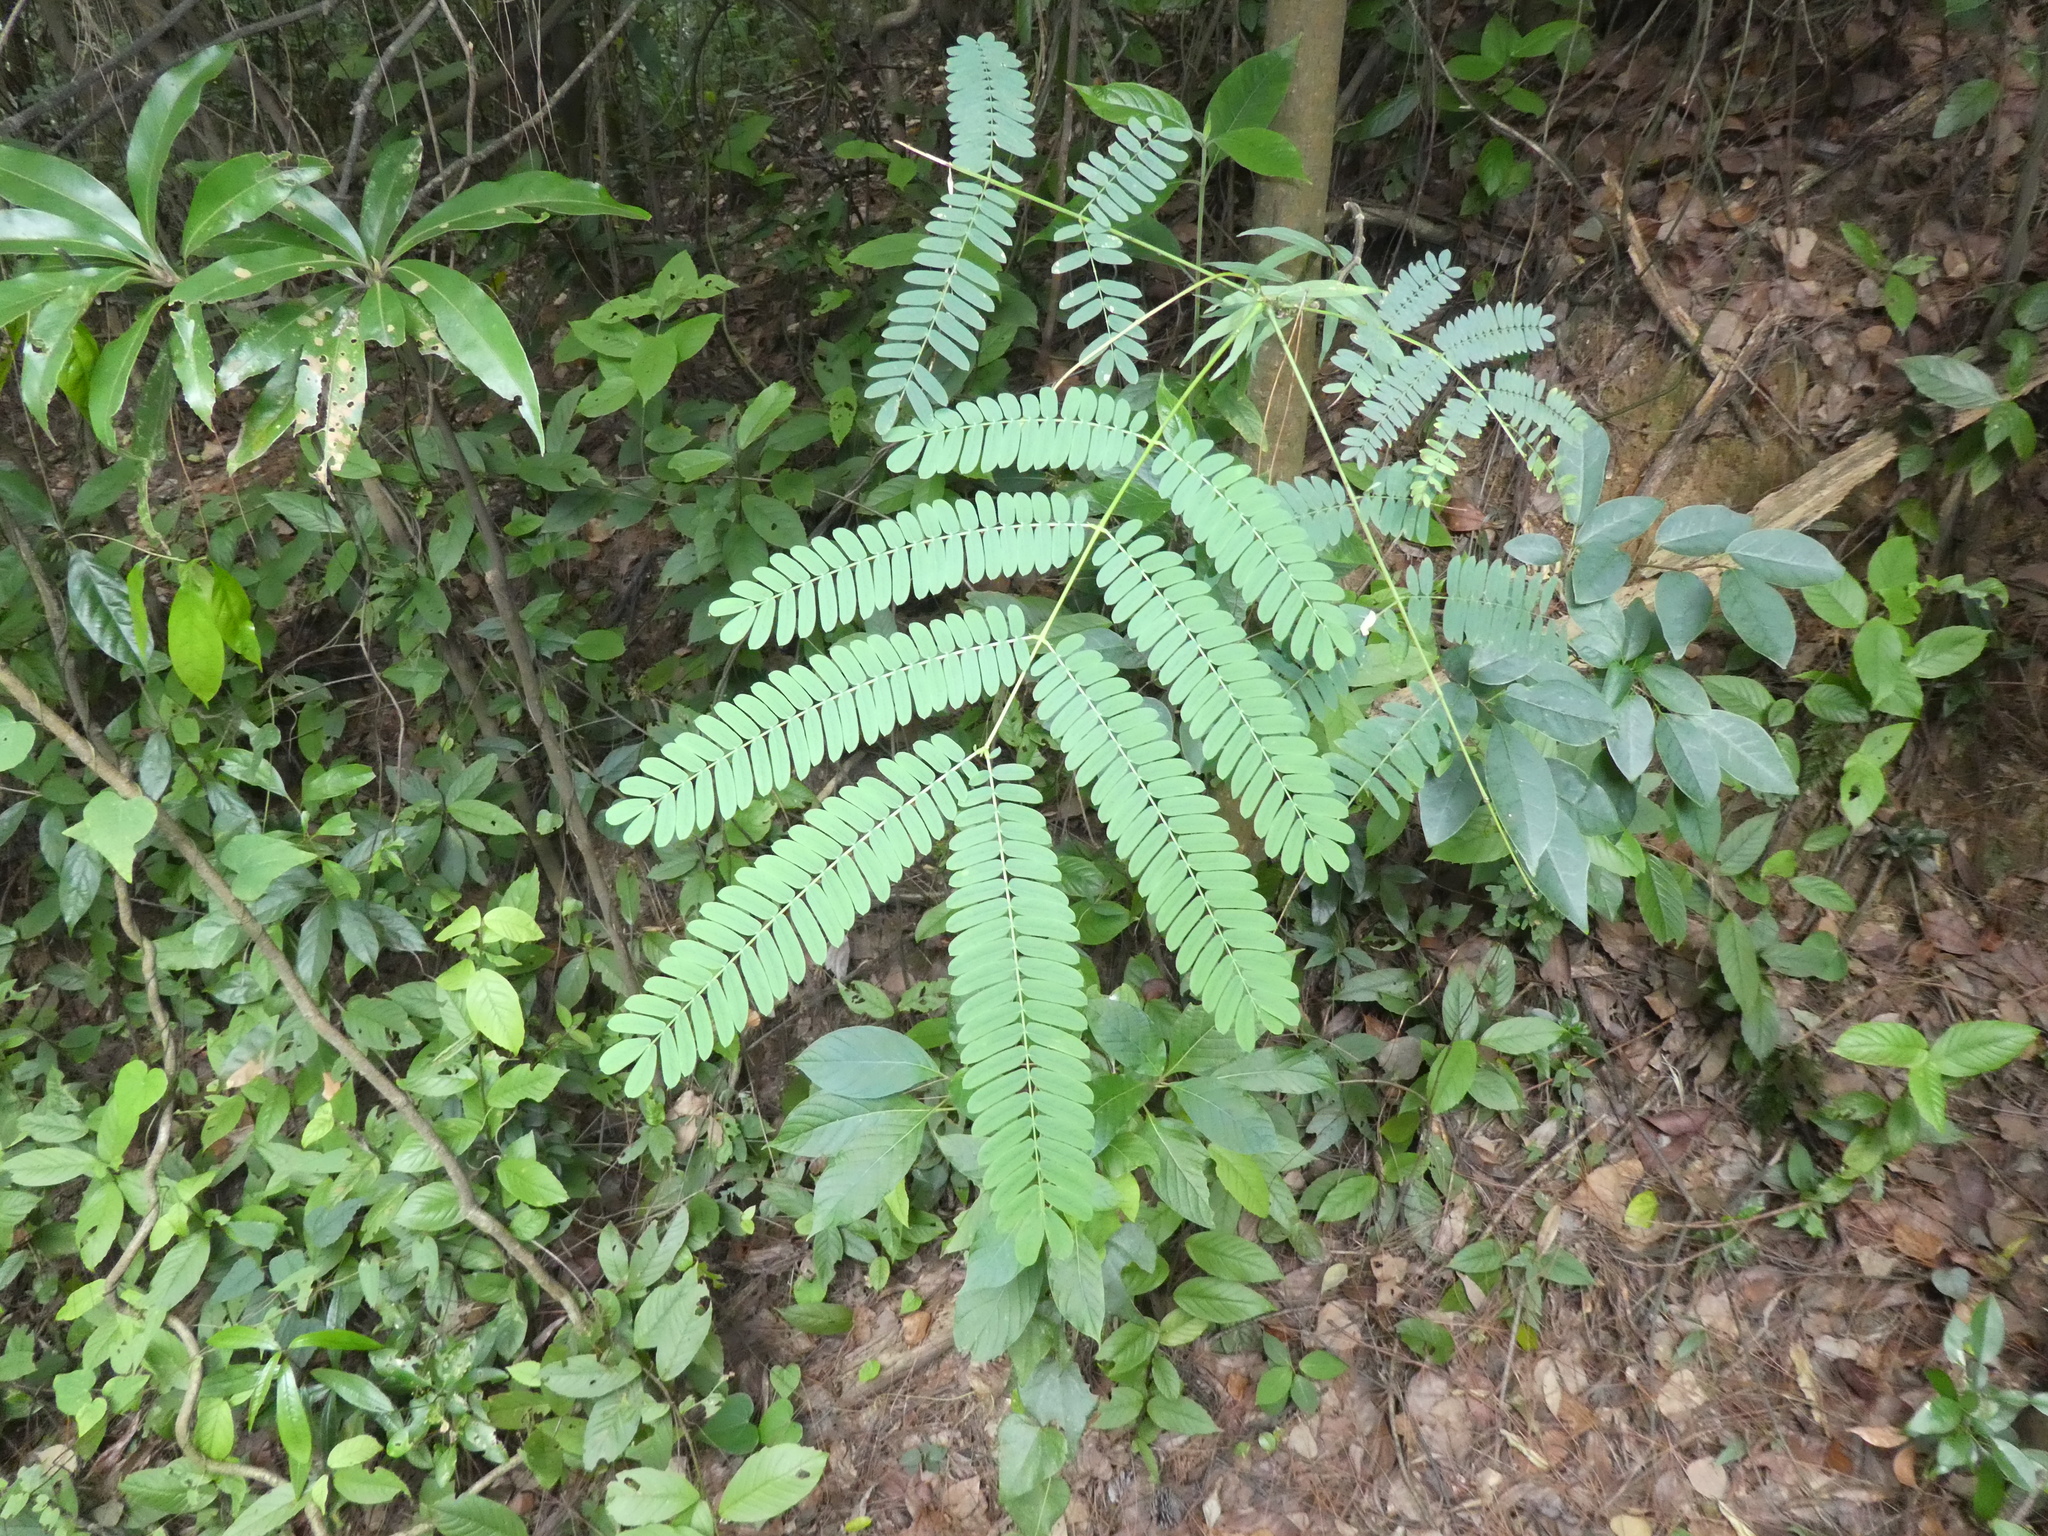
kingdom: Plantae
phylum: Tracheophyta
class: Magnoliopsida
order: Fabales
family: Fabaceae
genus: Albizia
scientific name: Albizia kalkora
